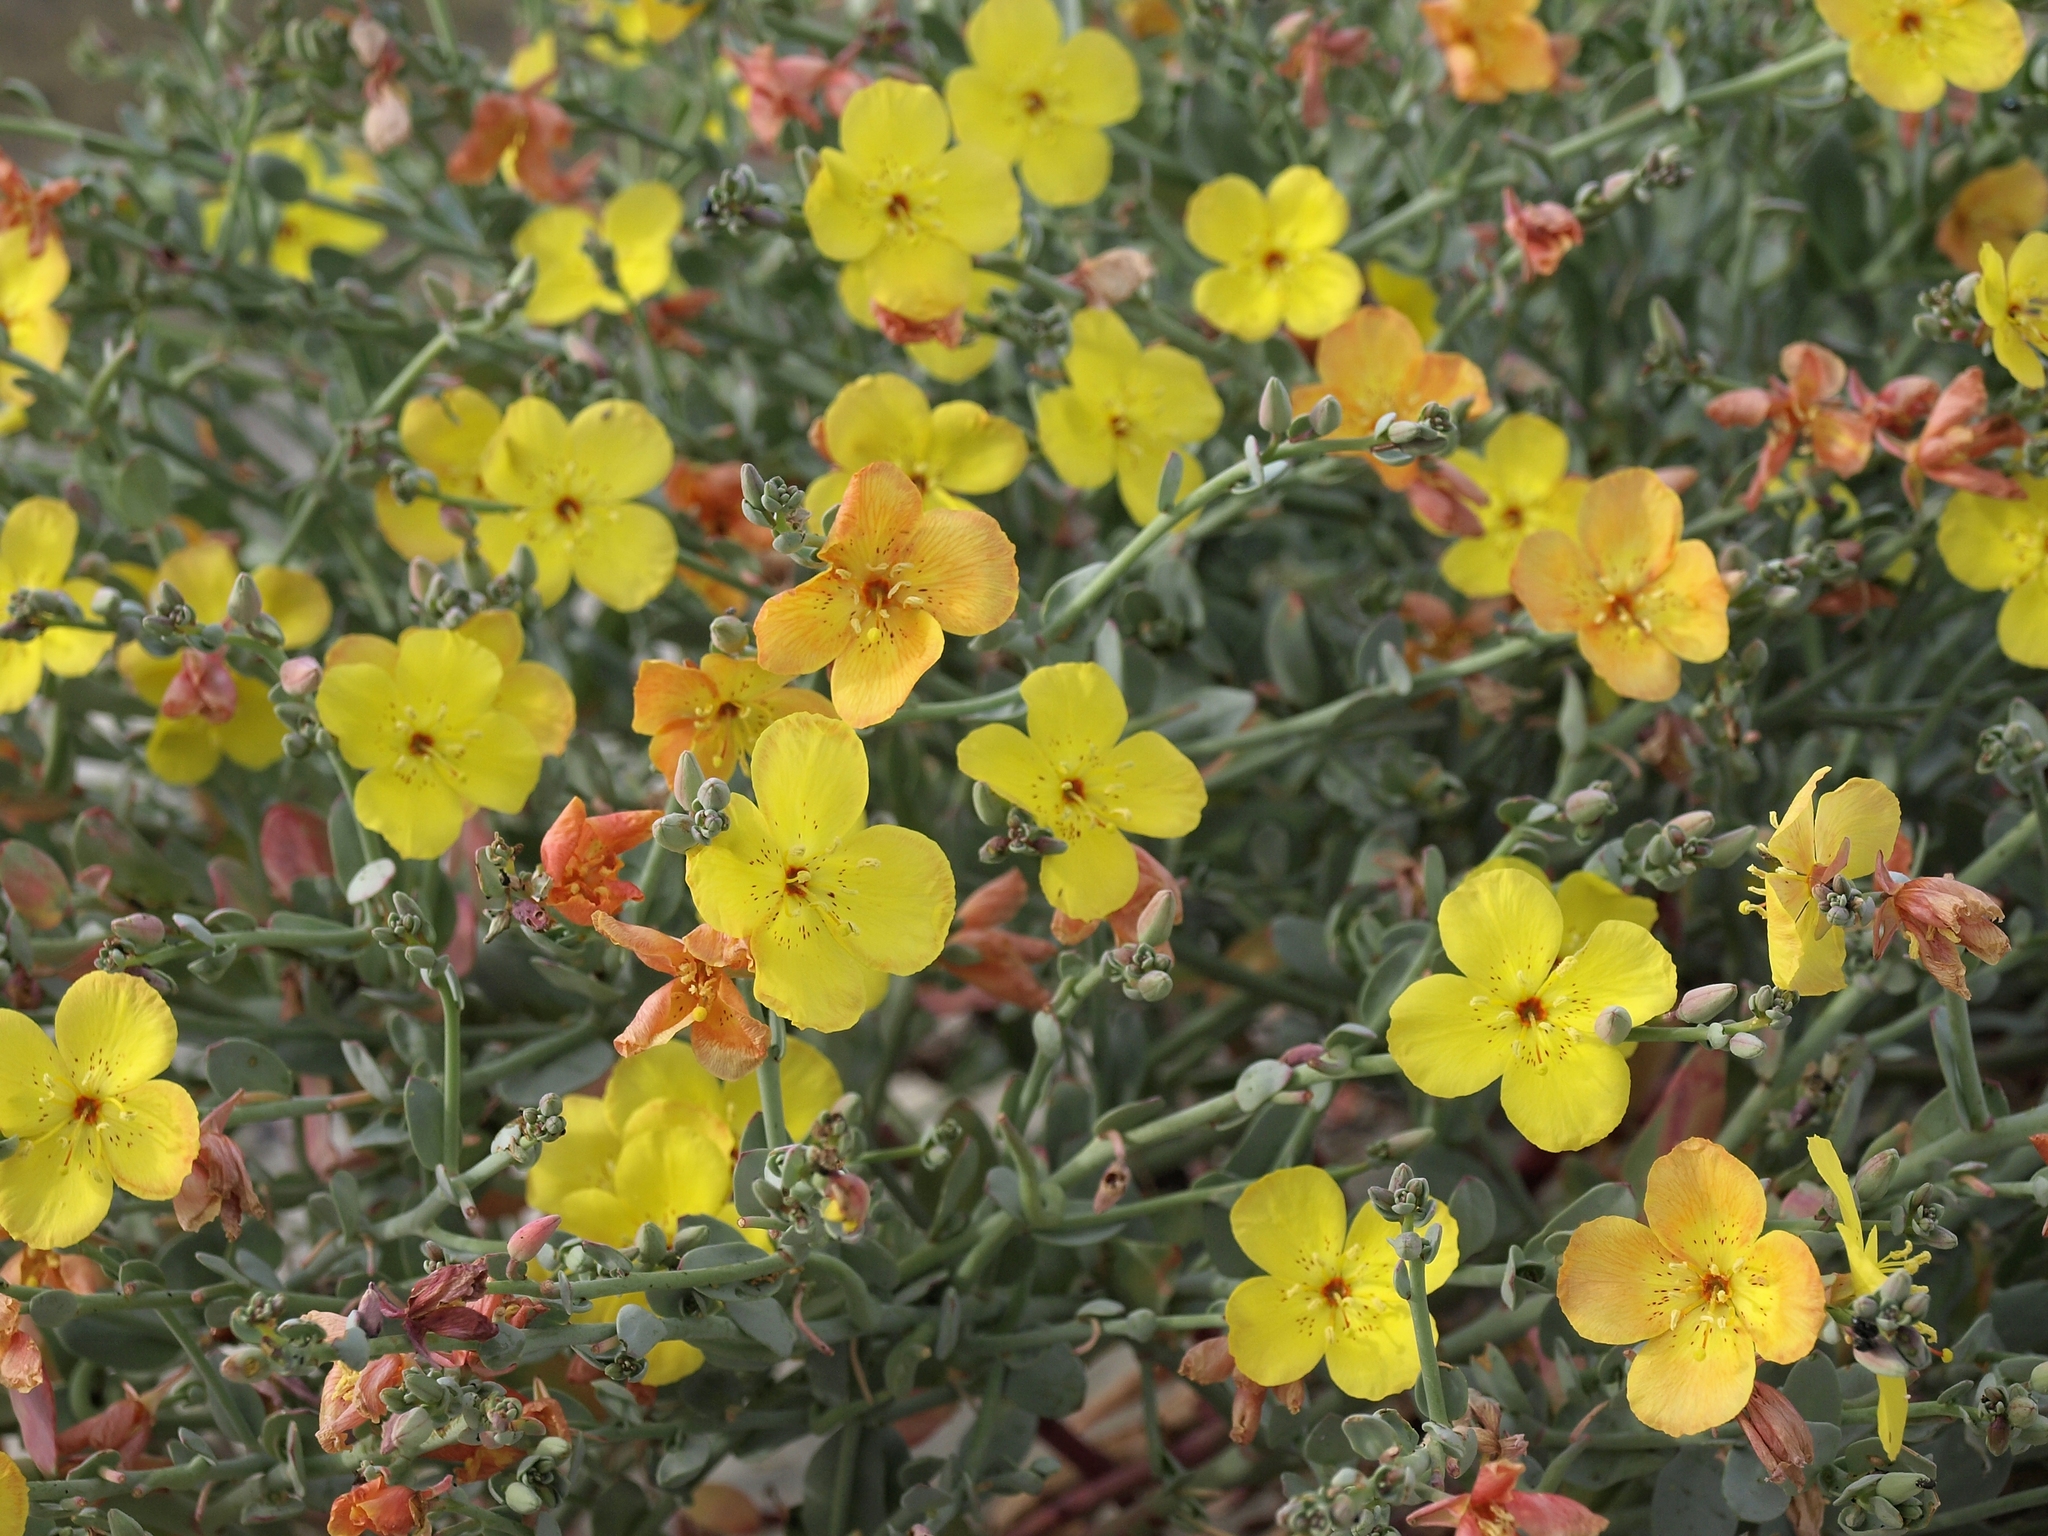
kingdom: Plantae
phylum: Tracheophyta
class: Magnoliopsida
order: Myrtales
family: Onagraceae
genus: Eulobus
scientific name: Eulobus crassifolius
